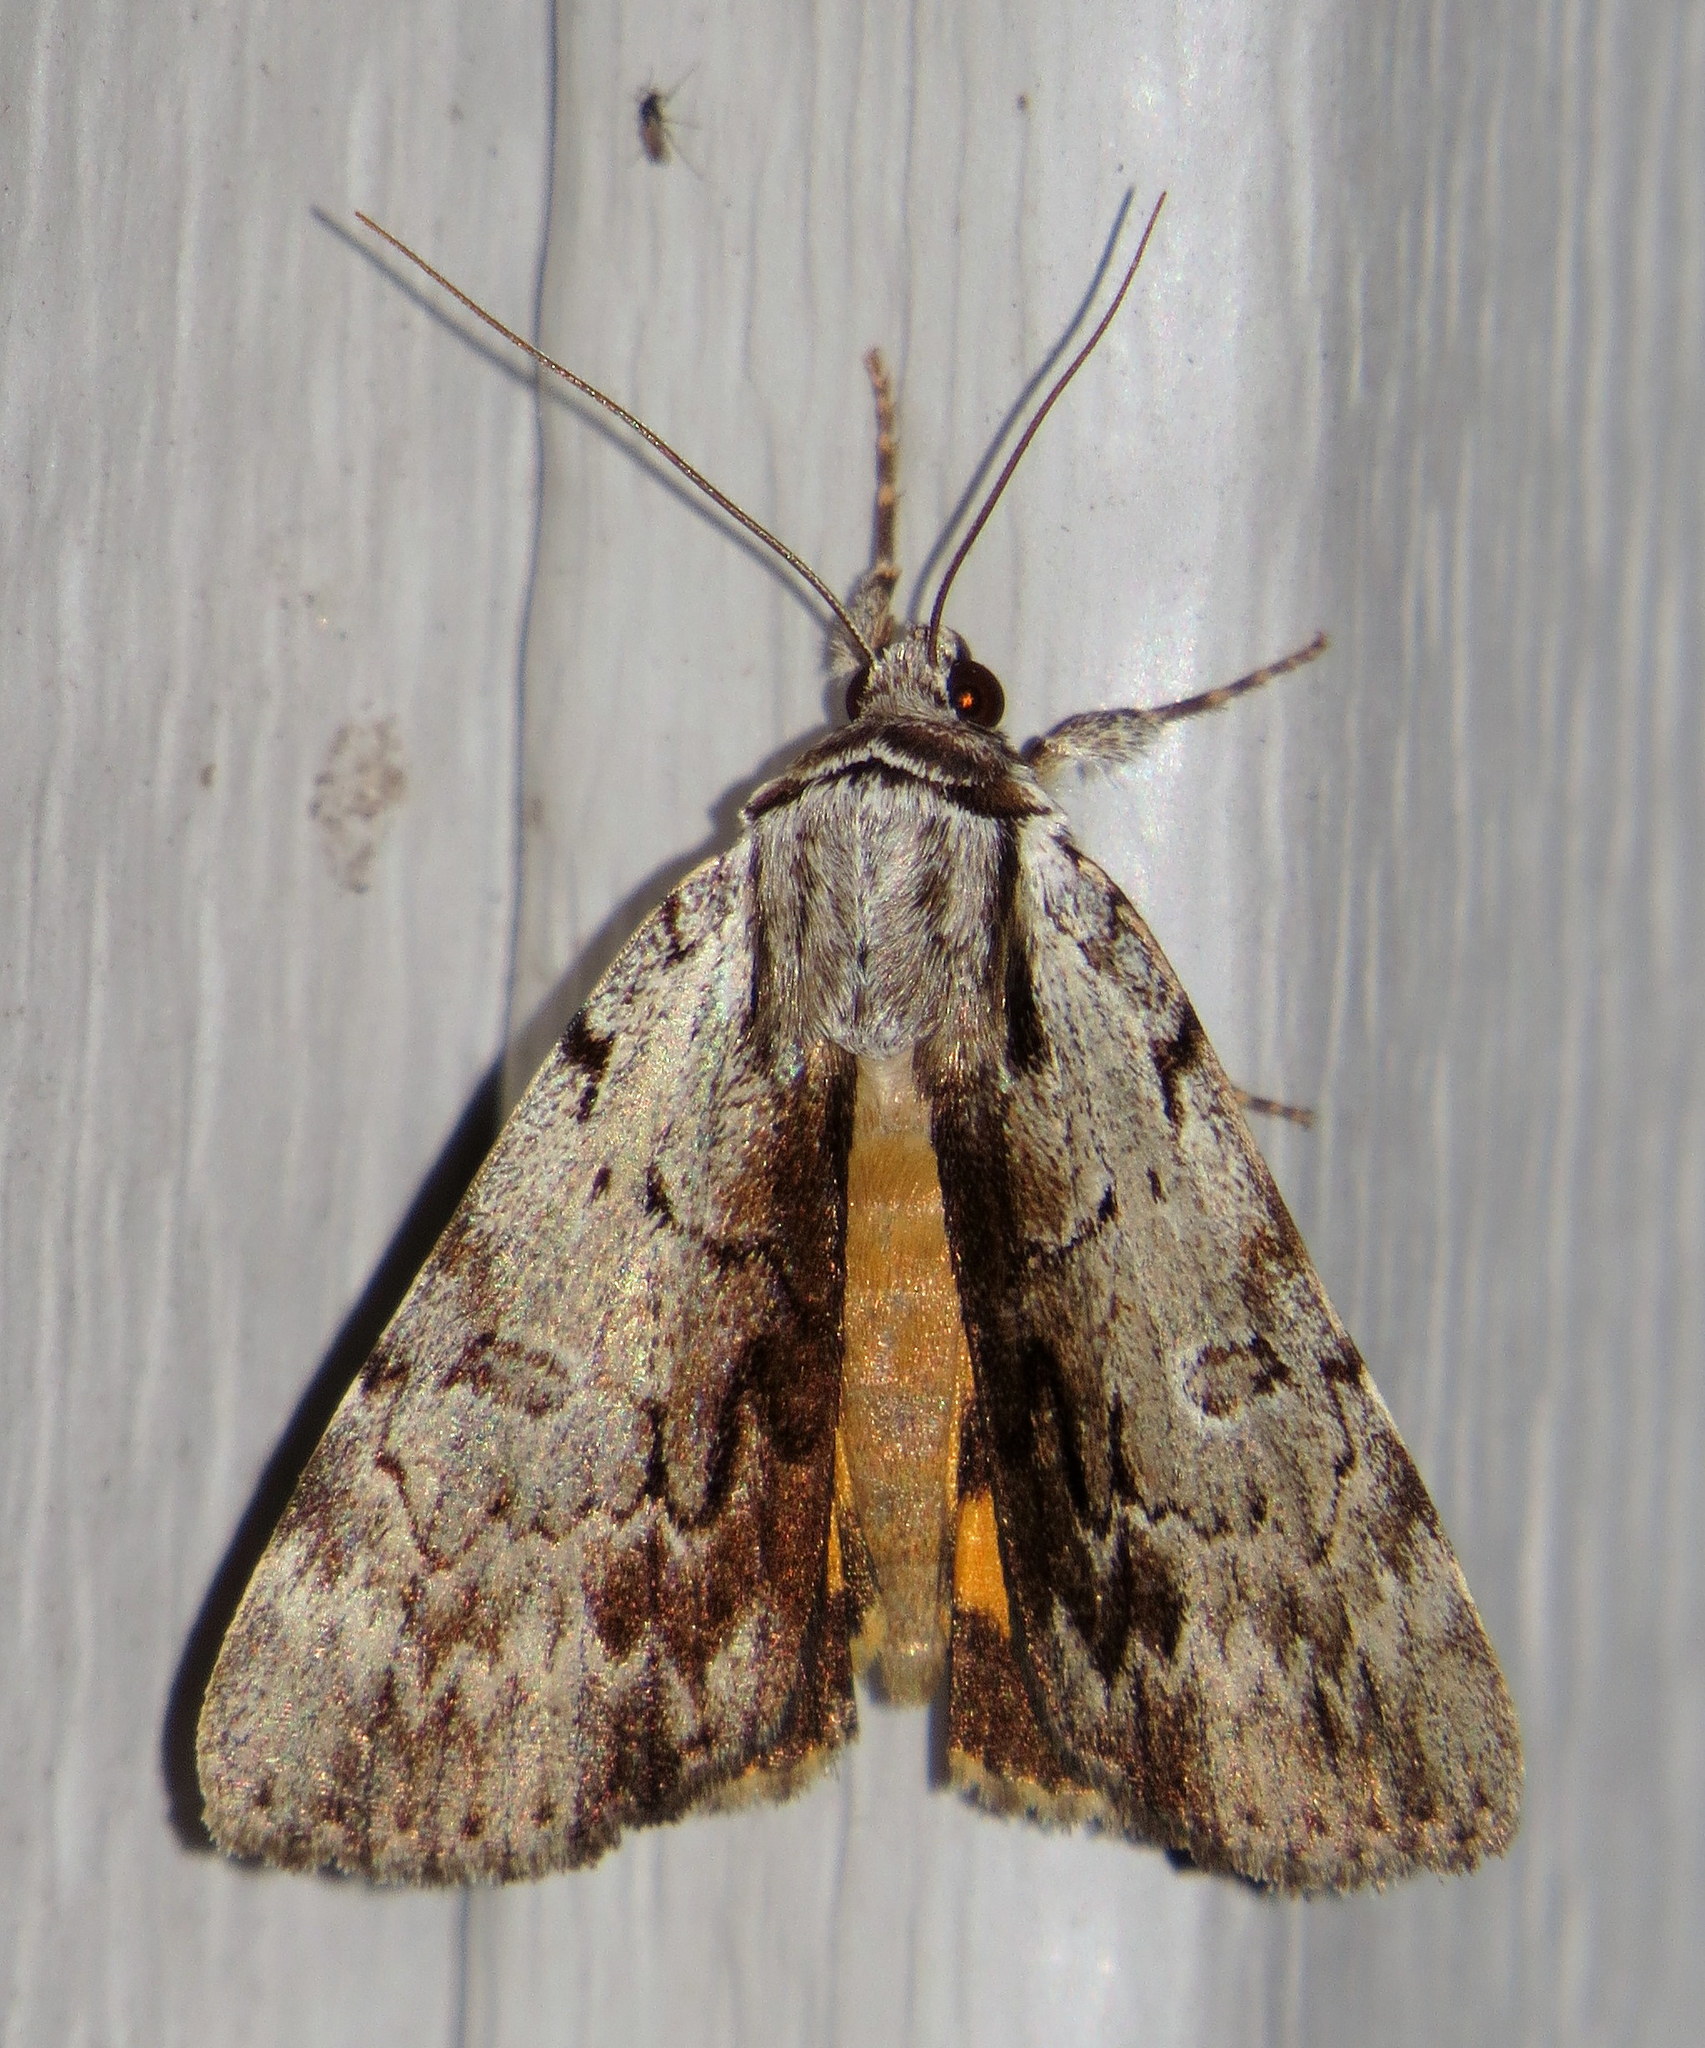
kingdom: Animalia
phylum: Arthropoda
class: Insecta
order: Lepidoptera
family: Erebidae
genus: Catocala
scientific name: Catocala gracilis
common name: Graceful underwing
